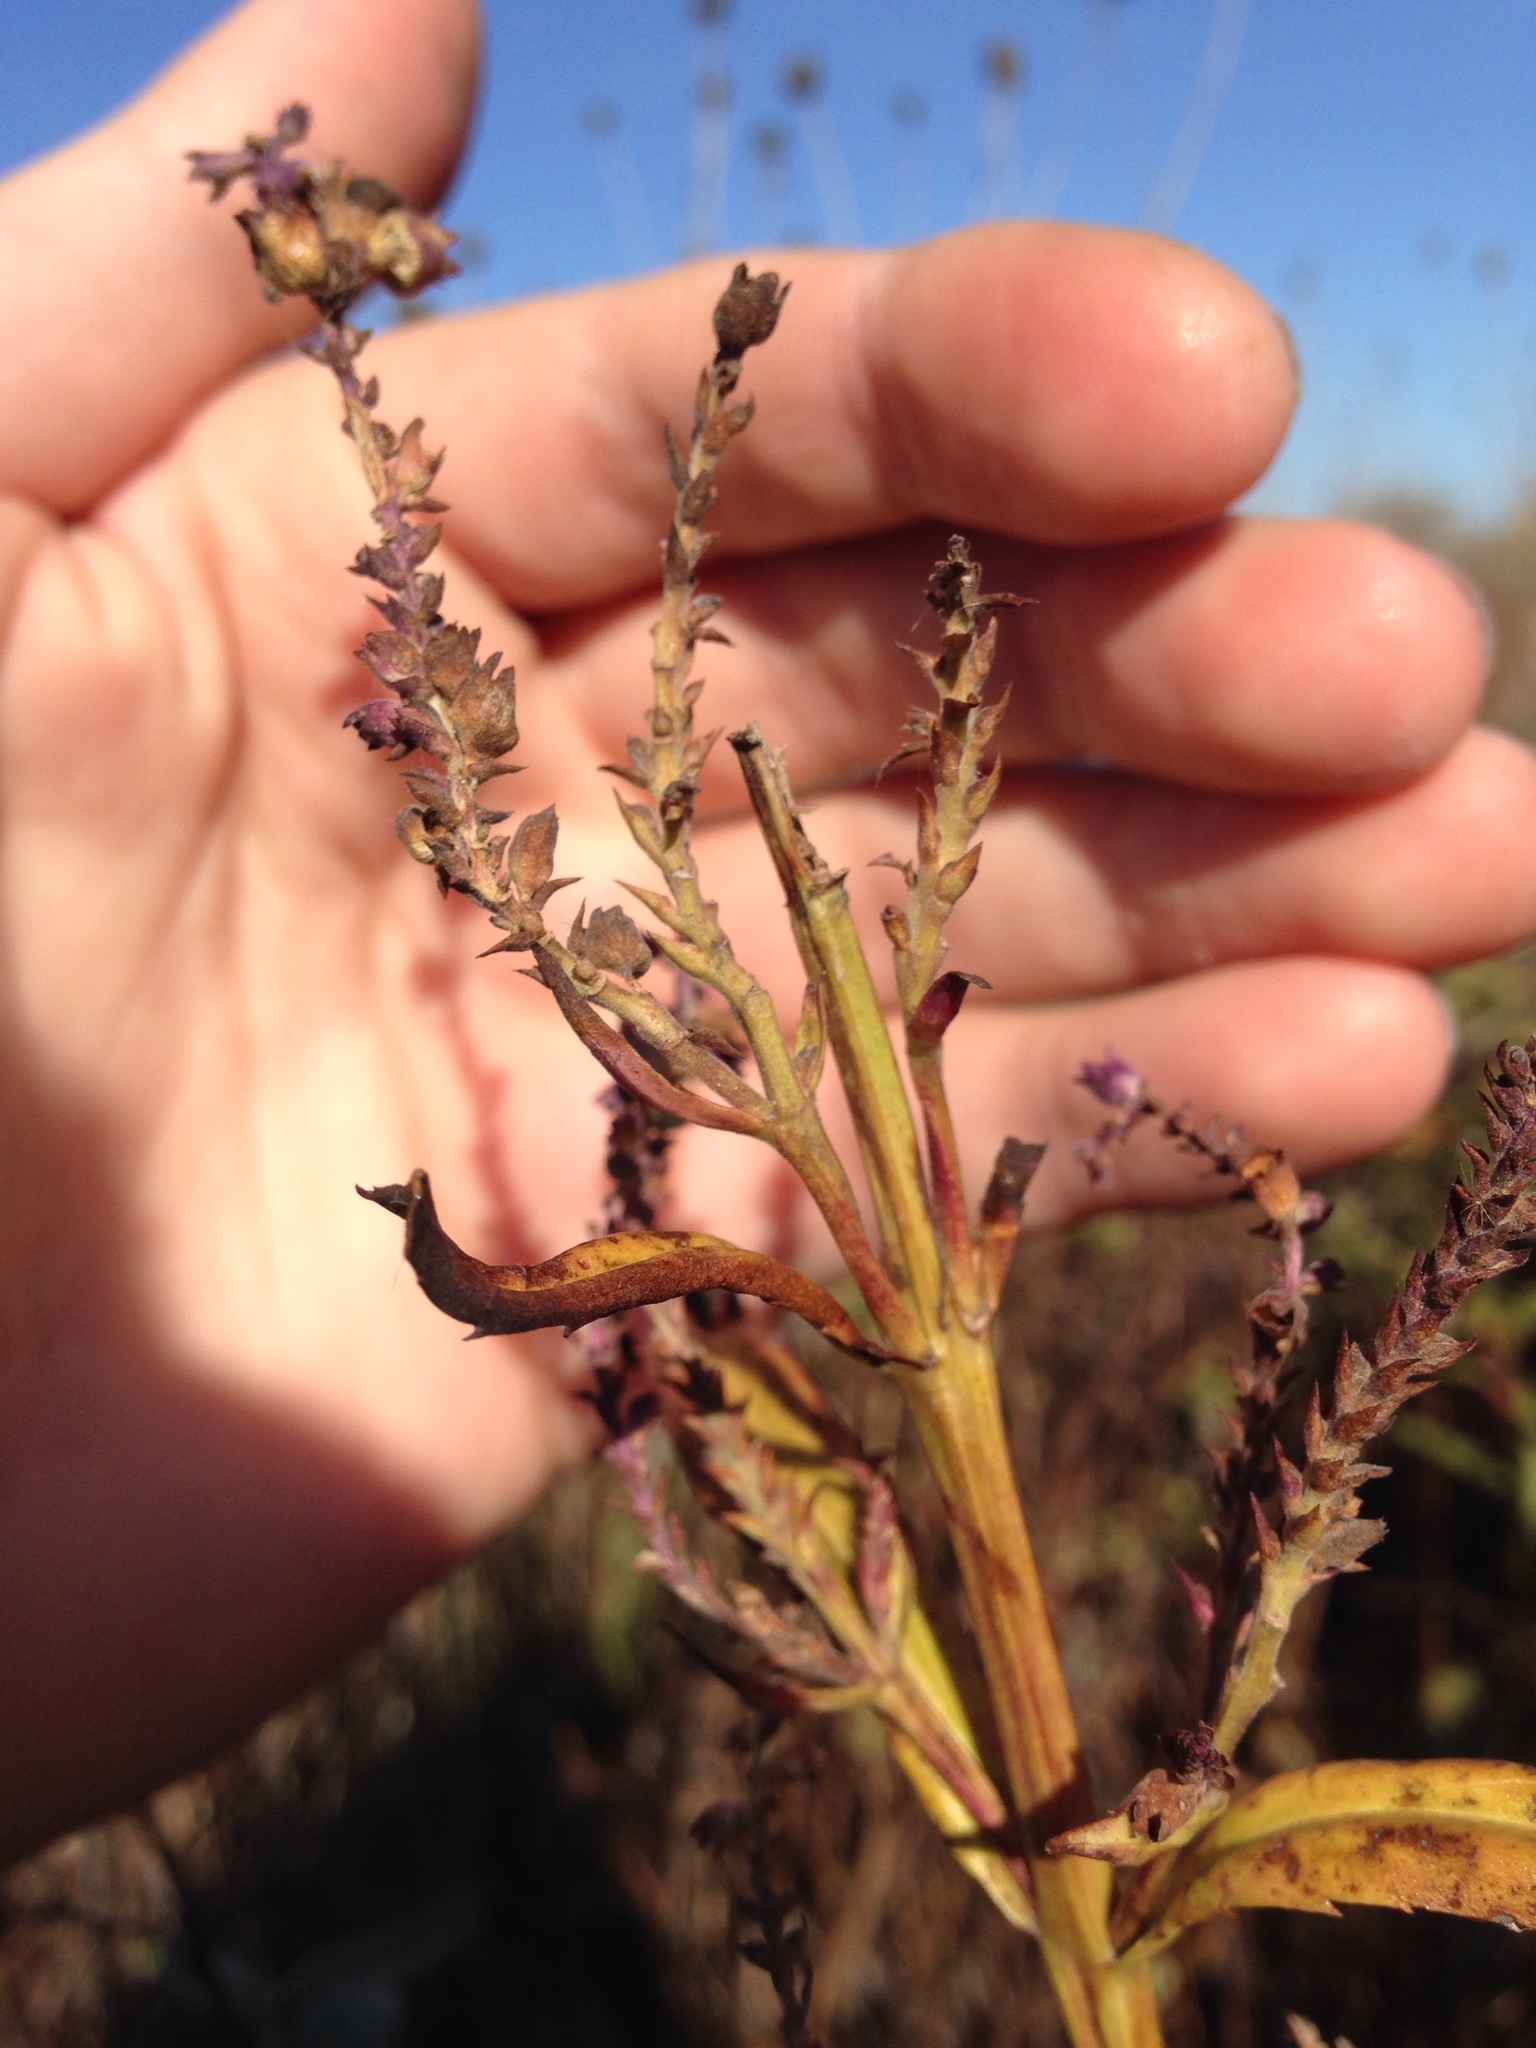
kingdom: Plantae
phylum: Tracheophyta
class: Magnoliopsida
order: Saxifragales
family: Penthoraceae
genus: Penthorum
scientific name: Penthorum sedoides
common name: Ditch stonecrop
